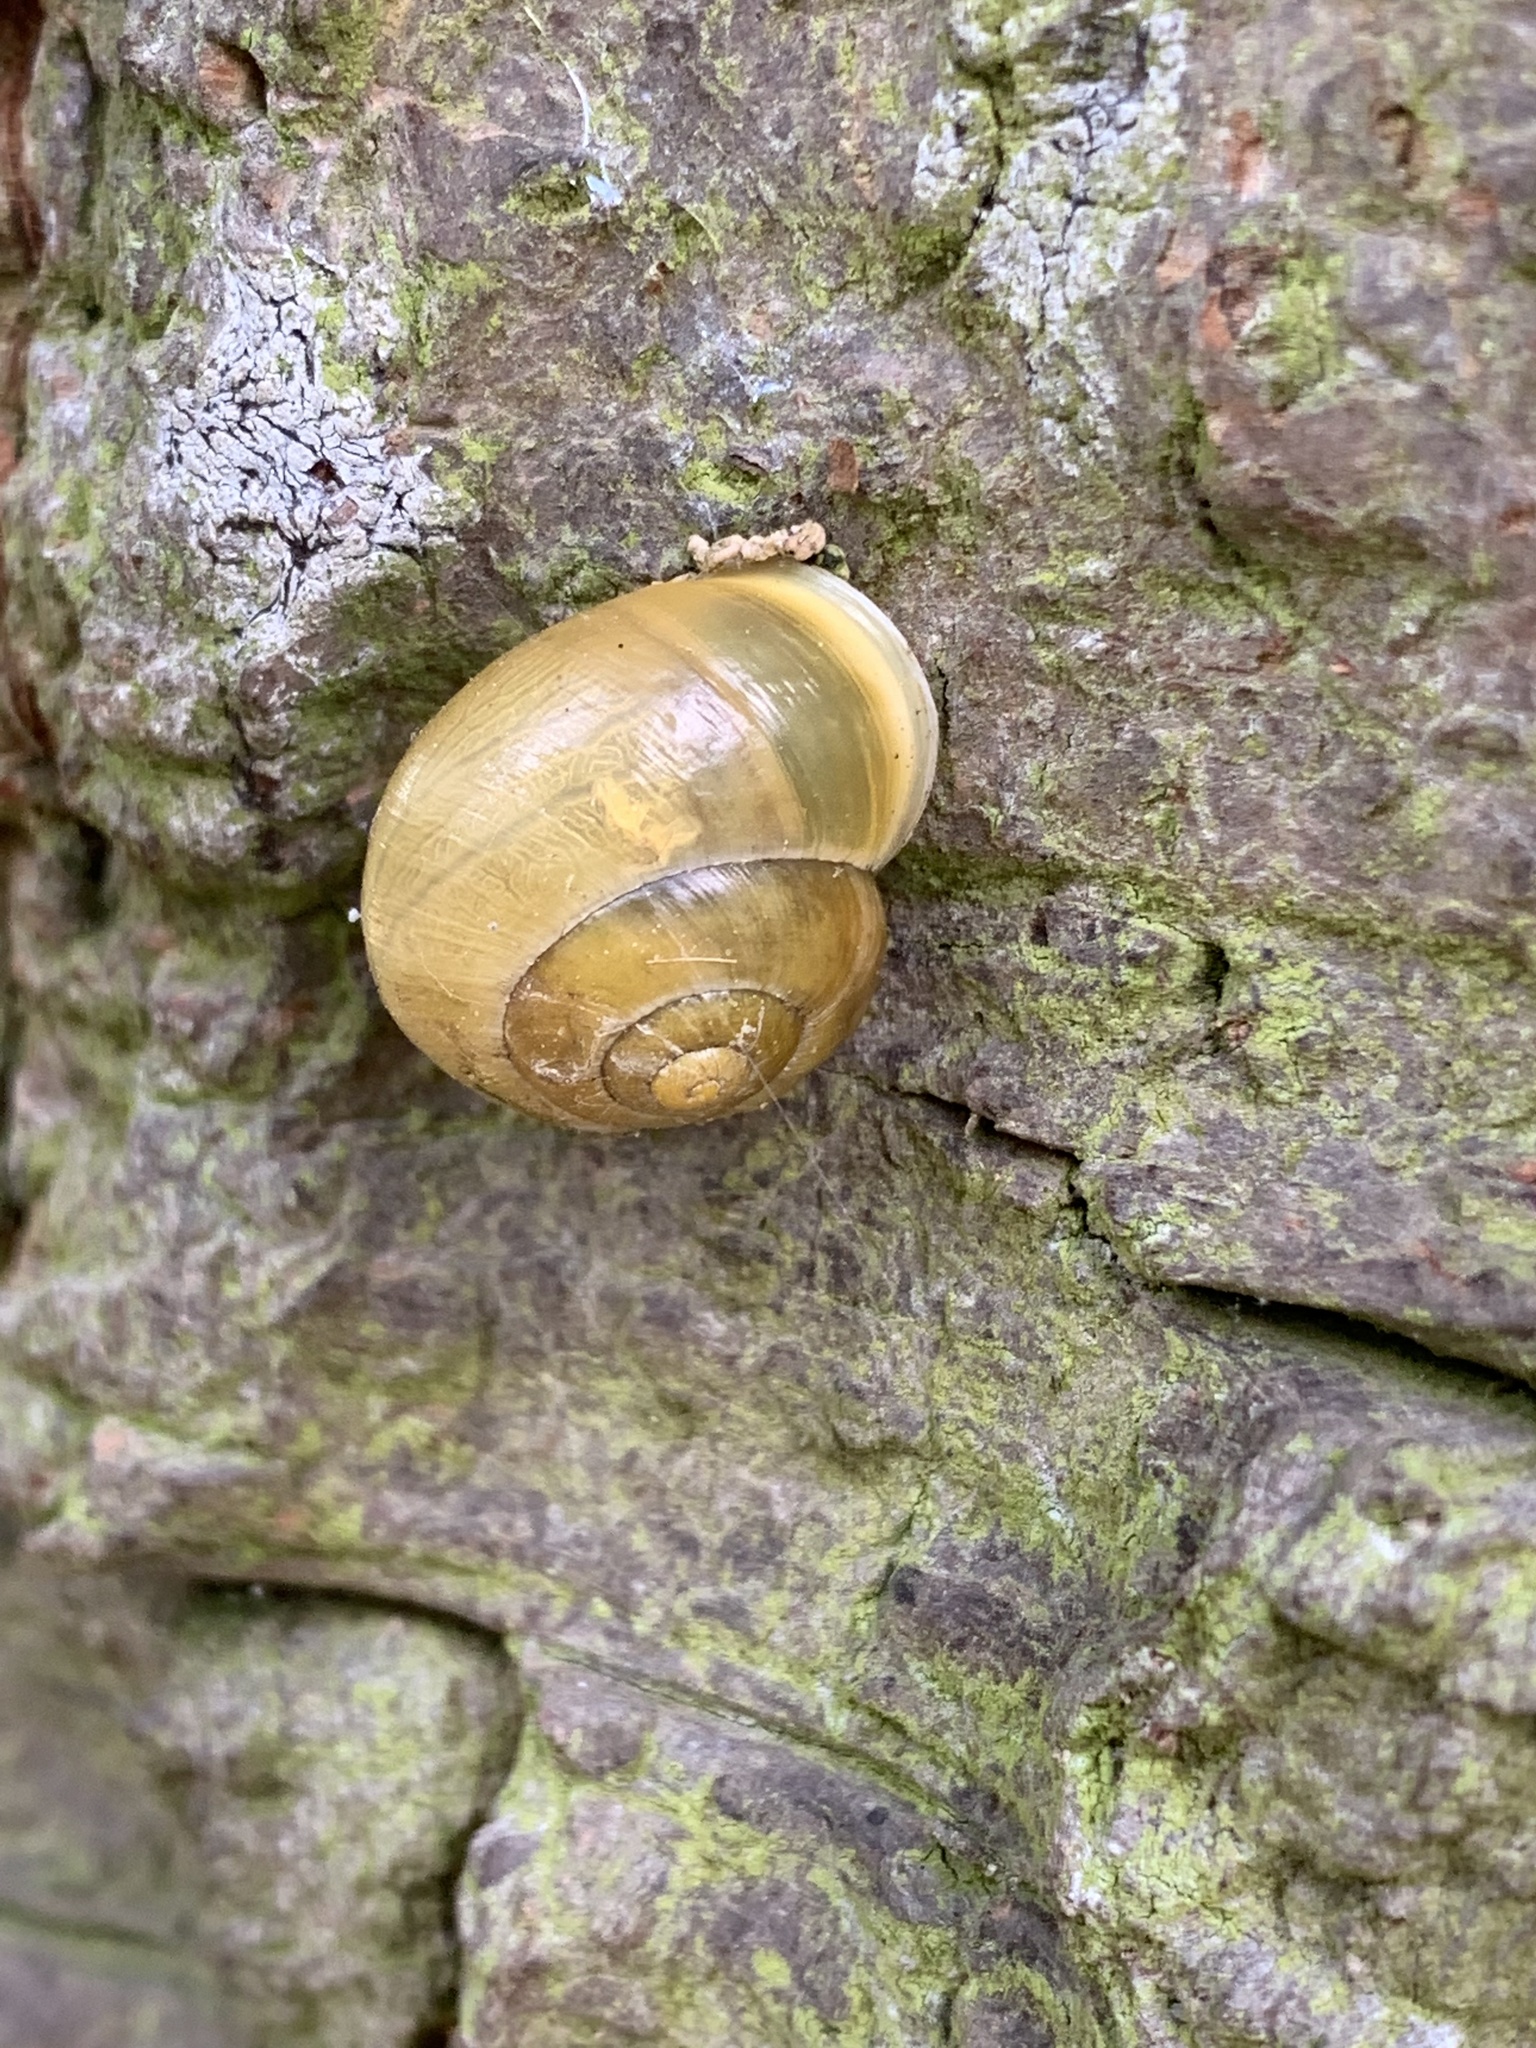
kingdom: Animalia
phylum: Mollusca
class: Gastropoda
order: Stylommatophora
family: Helicidae
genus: Cepaea
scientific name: Cepaea hortensis
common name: White-lip gardensnail
